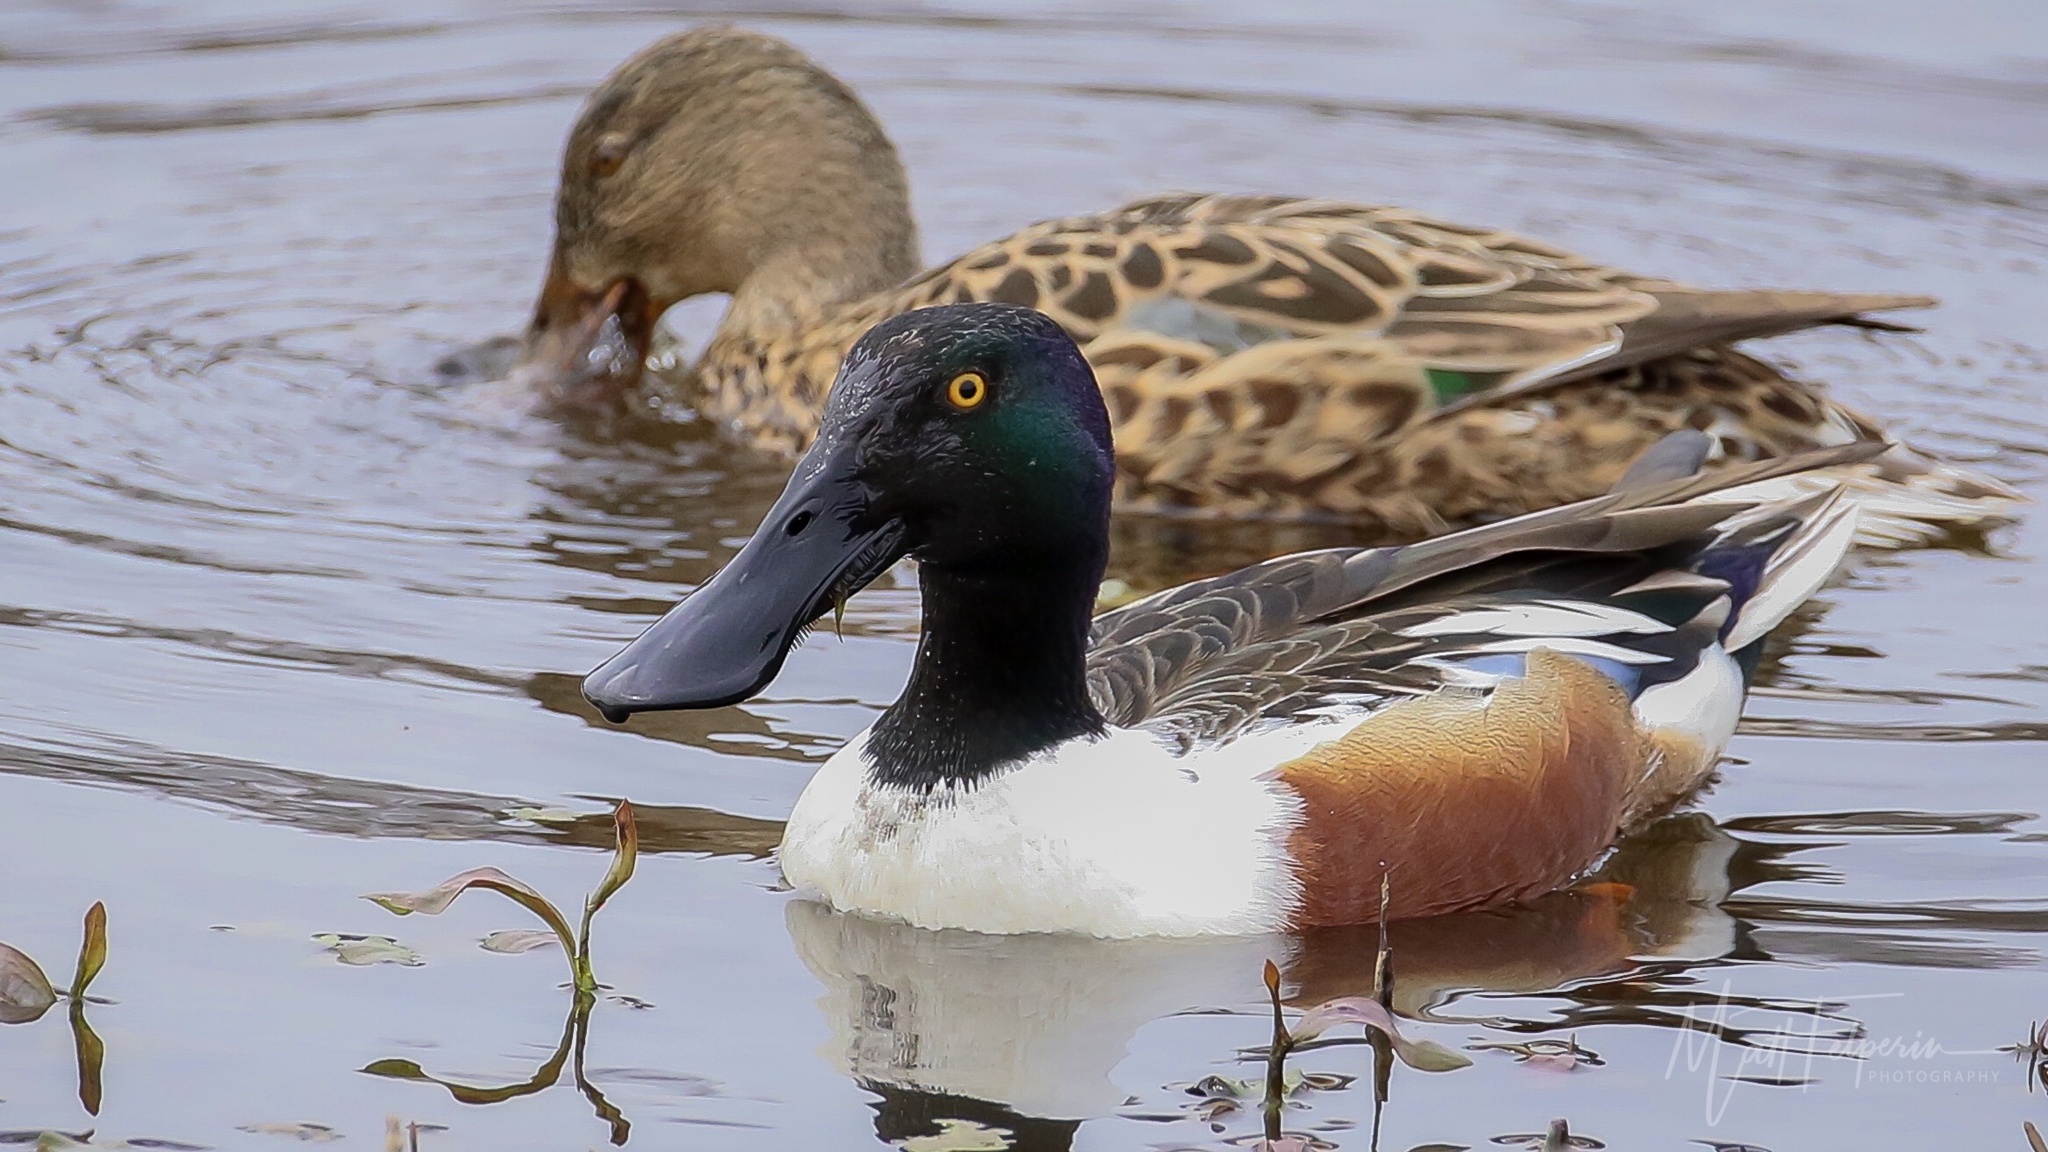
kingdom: Animalia
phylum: Chordata
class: Aves
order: Anseriformes
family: Anatidae
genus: Spatula
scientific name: Spatula clypeata
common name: Northern shoveler
